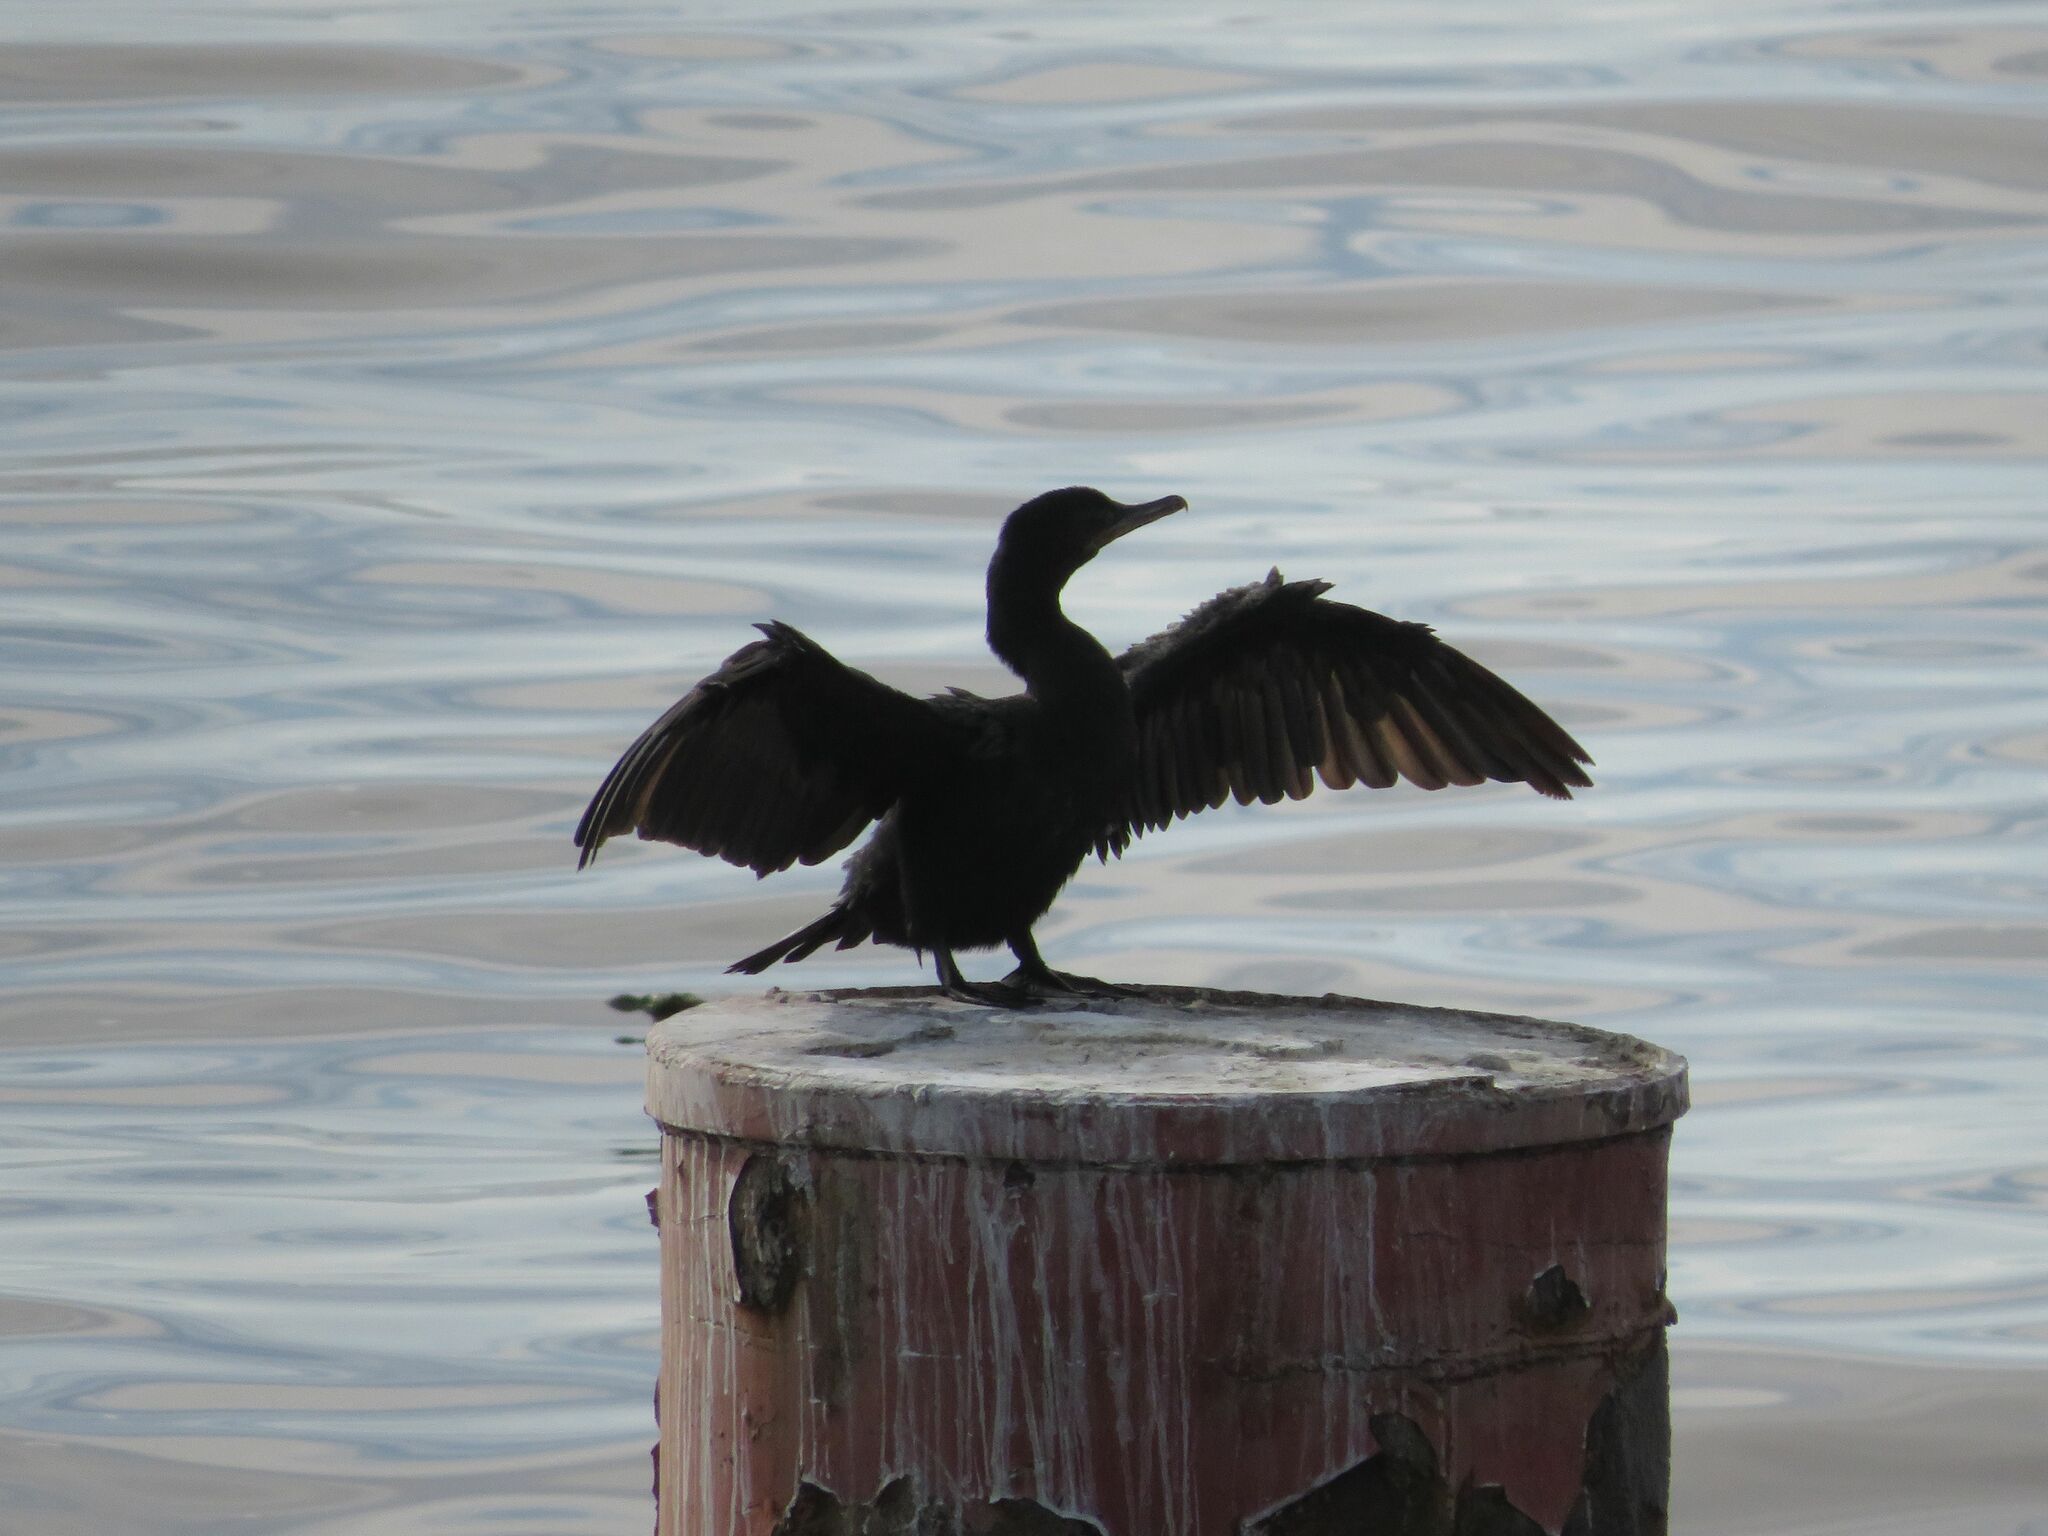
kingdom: Animalia
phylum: Chordata
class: Aves
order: Suliformes
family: Phalacrocoracidae
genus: Phalacrocorax
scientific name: Phalacrocorax brasilianus
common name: Neotropic cormorant
